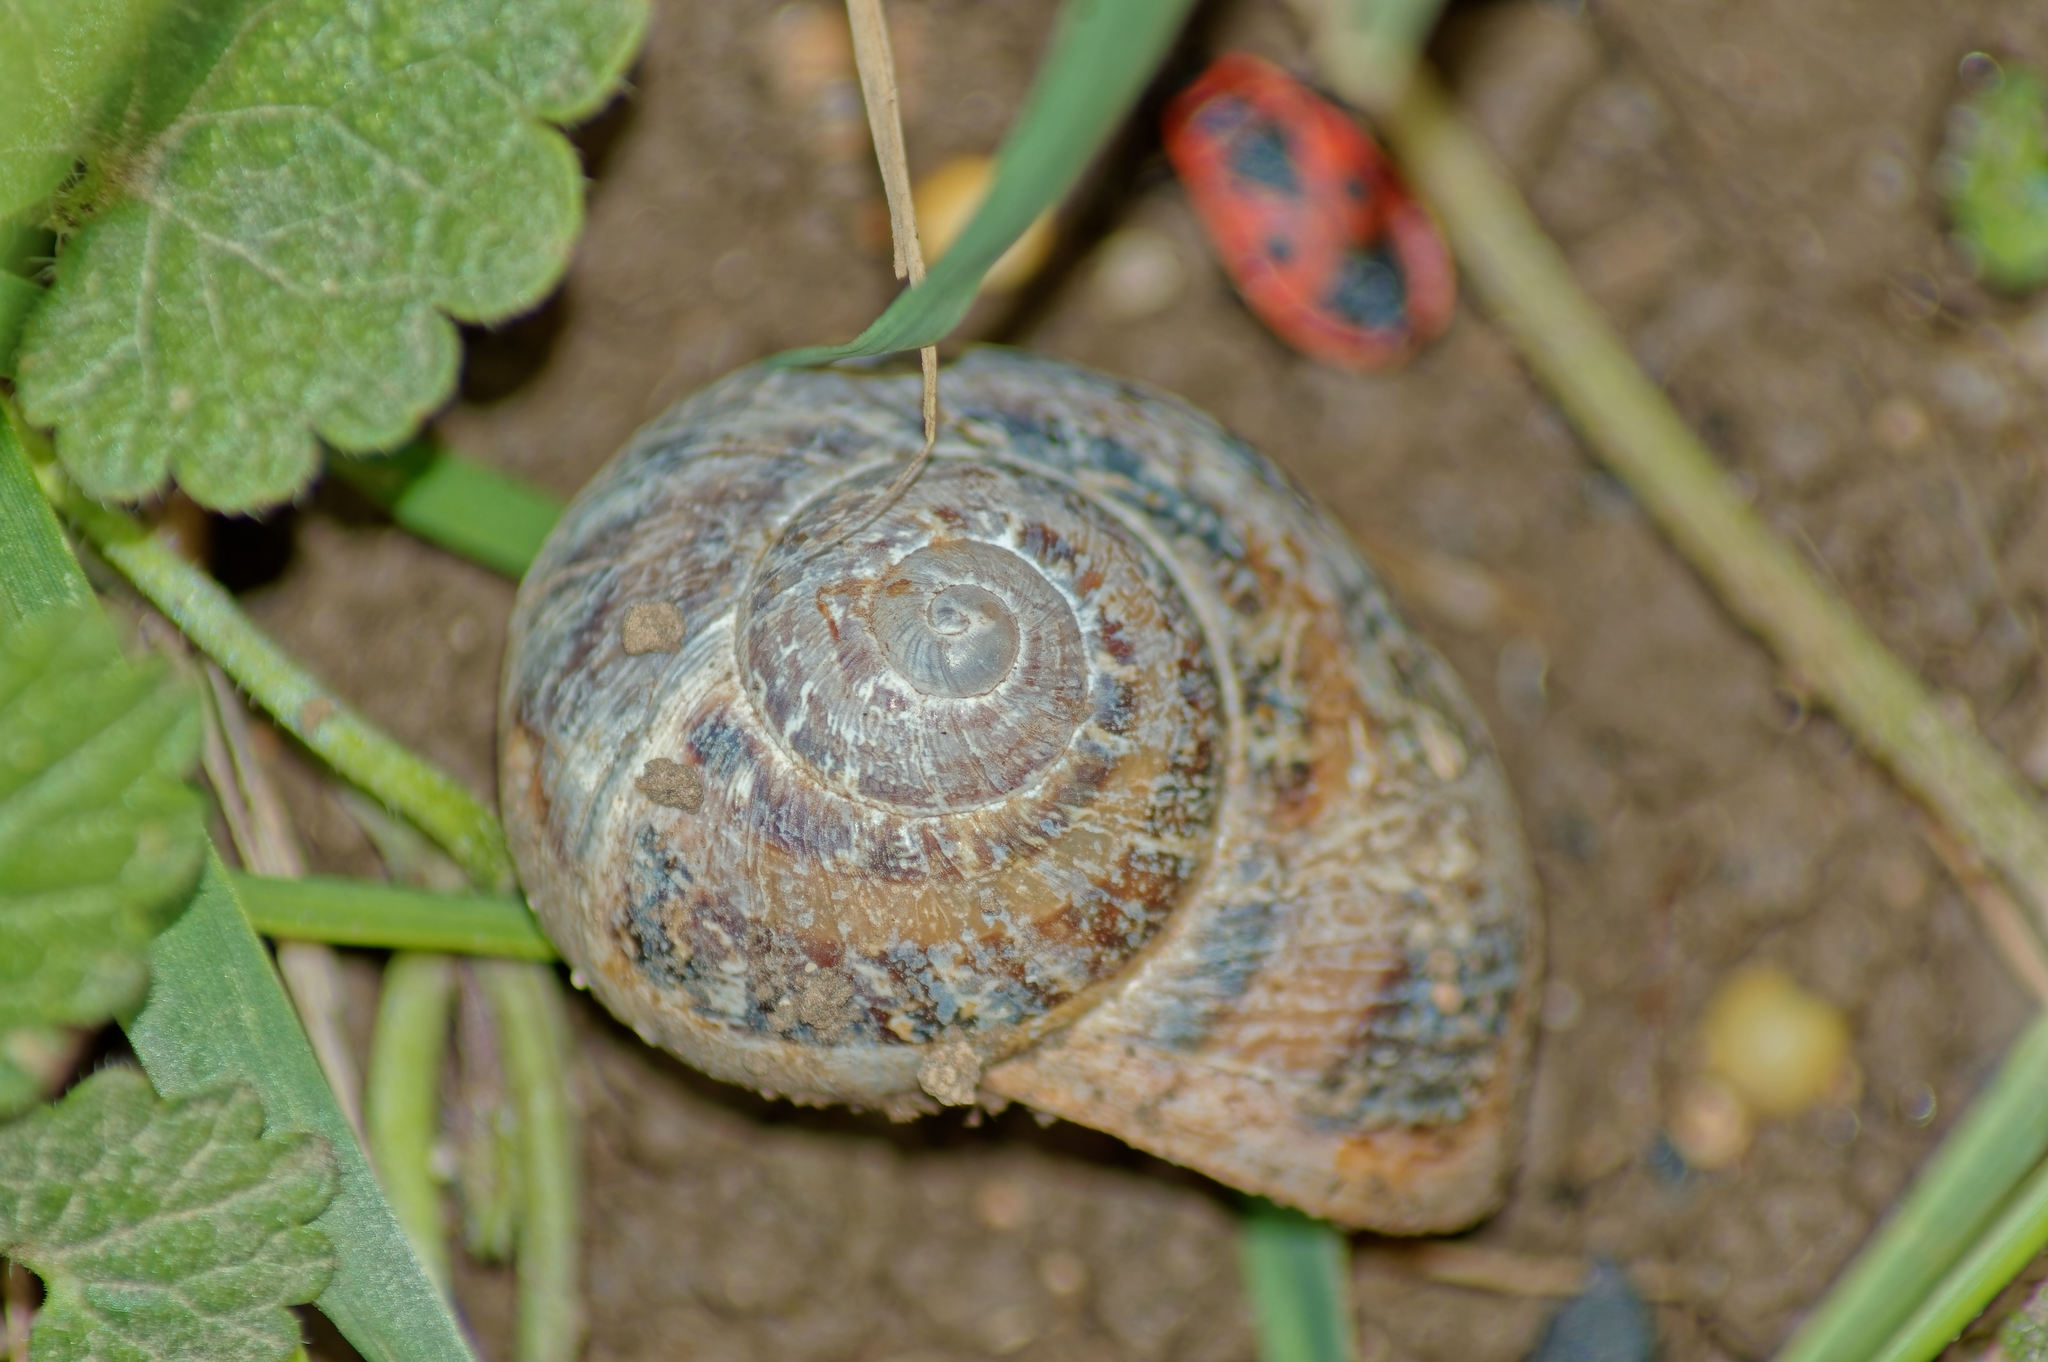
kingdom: Animalia
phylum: Mollusca
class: Gastropoda
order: Stylommatophora
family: Helicidae
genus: Cornu
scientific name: Cornu aspersum
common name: Brown garden snail
